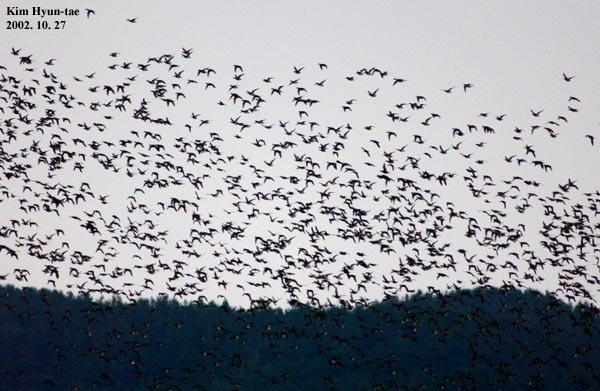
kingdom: Animalia
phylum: Chordata
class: Aves
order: Anseriformes
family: Anatidae
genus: Sibirionetta
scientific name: Sibirionetta formosa
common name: Baikal teal
